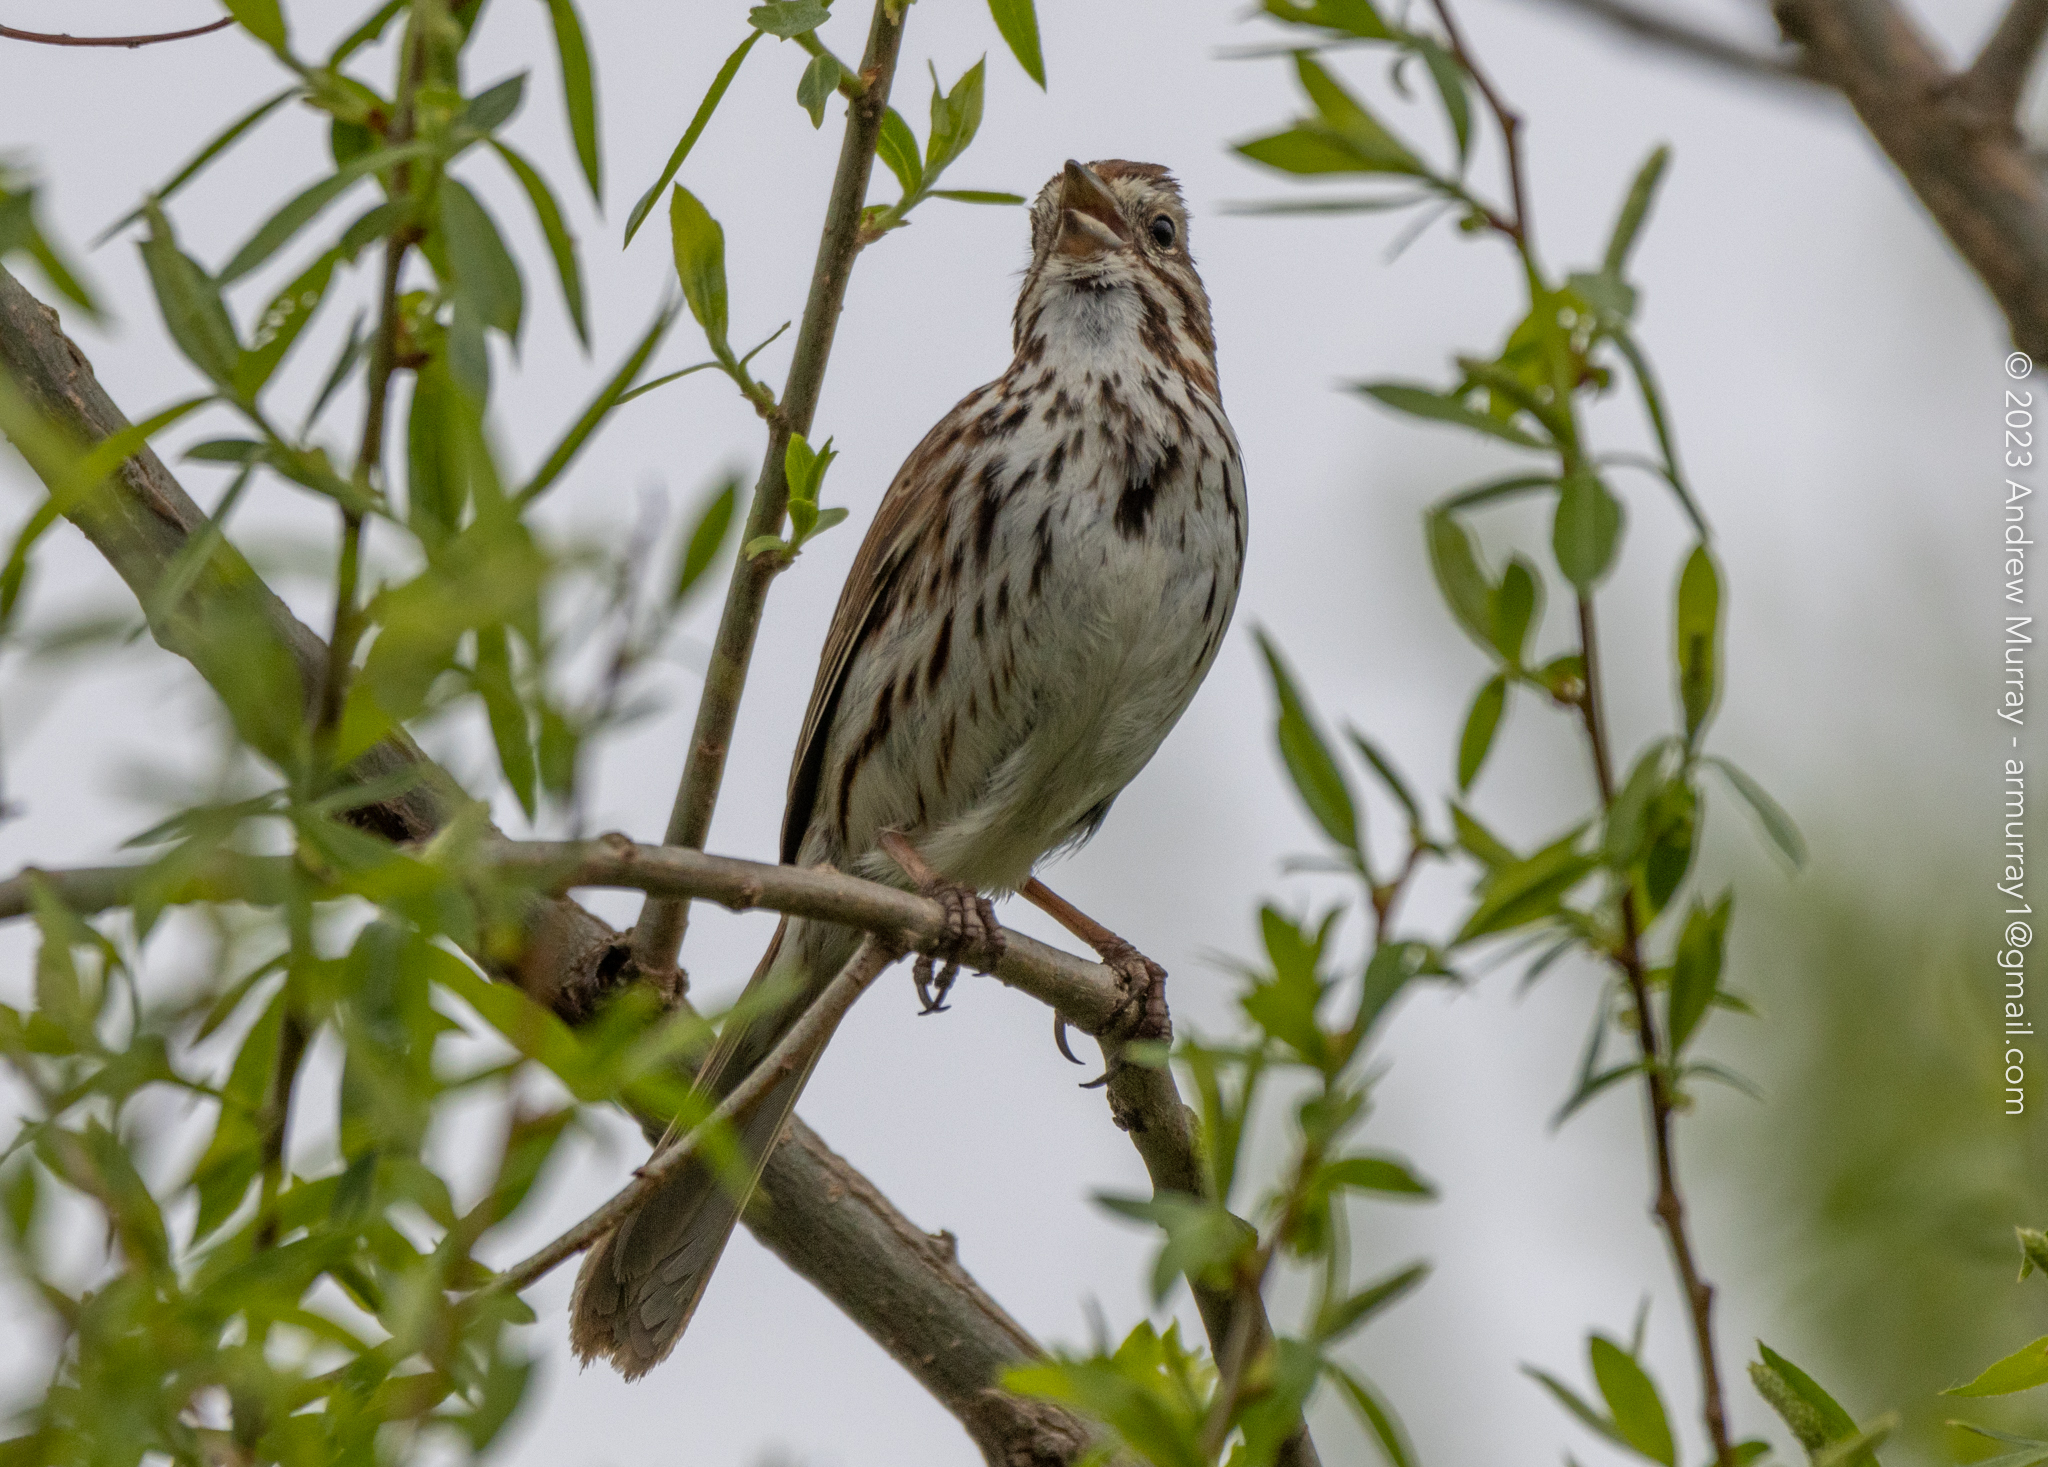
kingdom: Animalia
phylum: Chordata
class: Aves
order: Passeriformes
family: Passerellidae
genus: Melospiza
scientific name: Melospiza melodia
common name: Song sparrow
